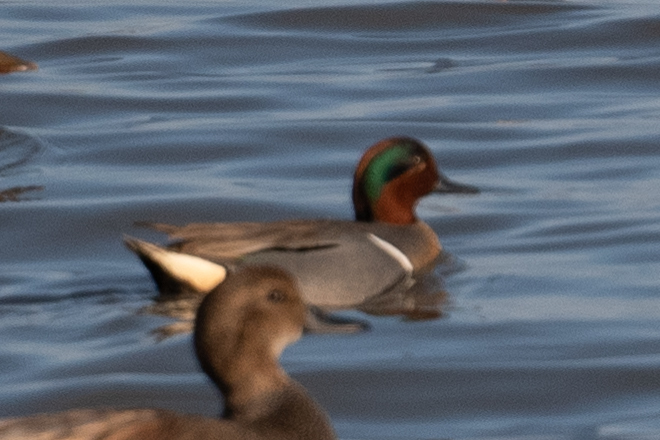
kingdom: Animalia
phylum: Chordata
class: Aves
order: Anseriformes
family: Anatidae
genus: Anas
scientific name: Anas crecca
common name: Eurasian teal
